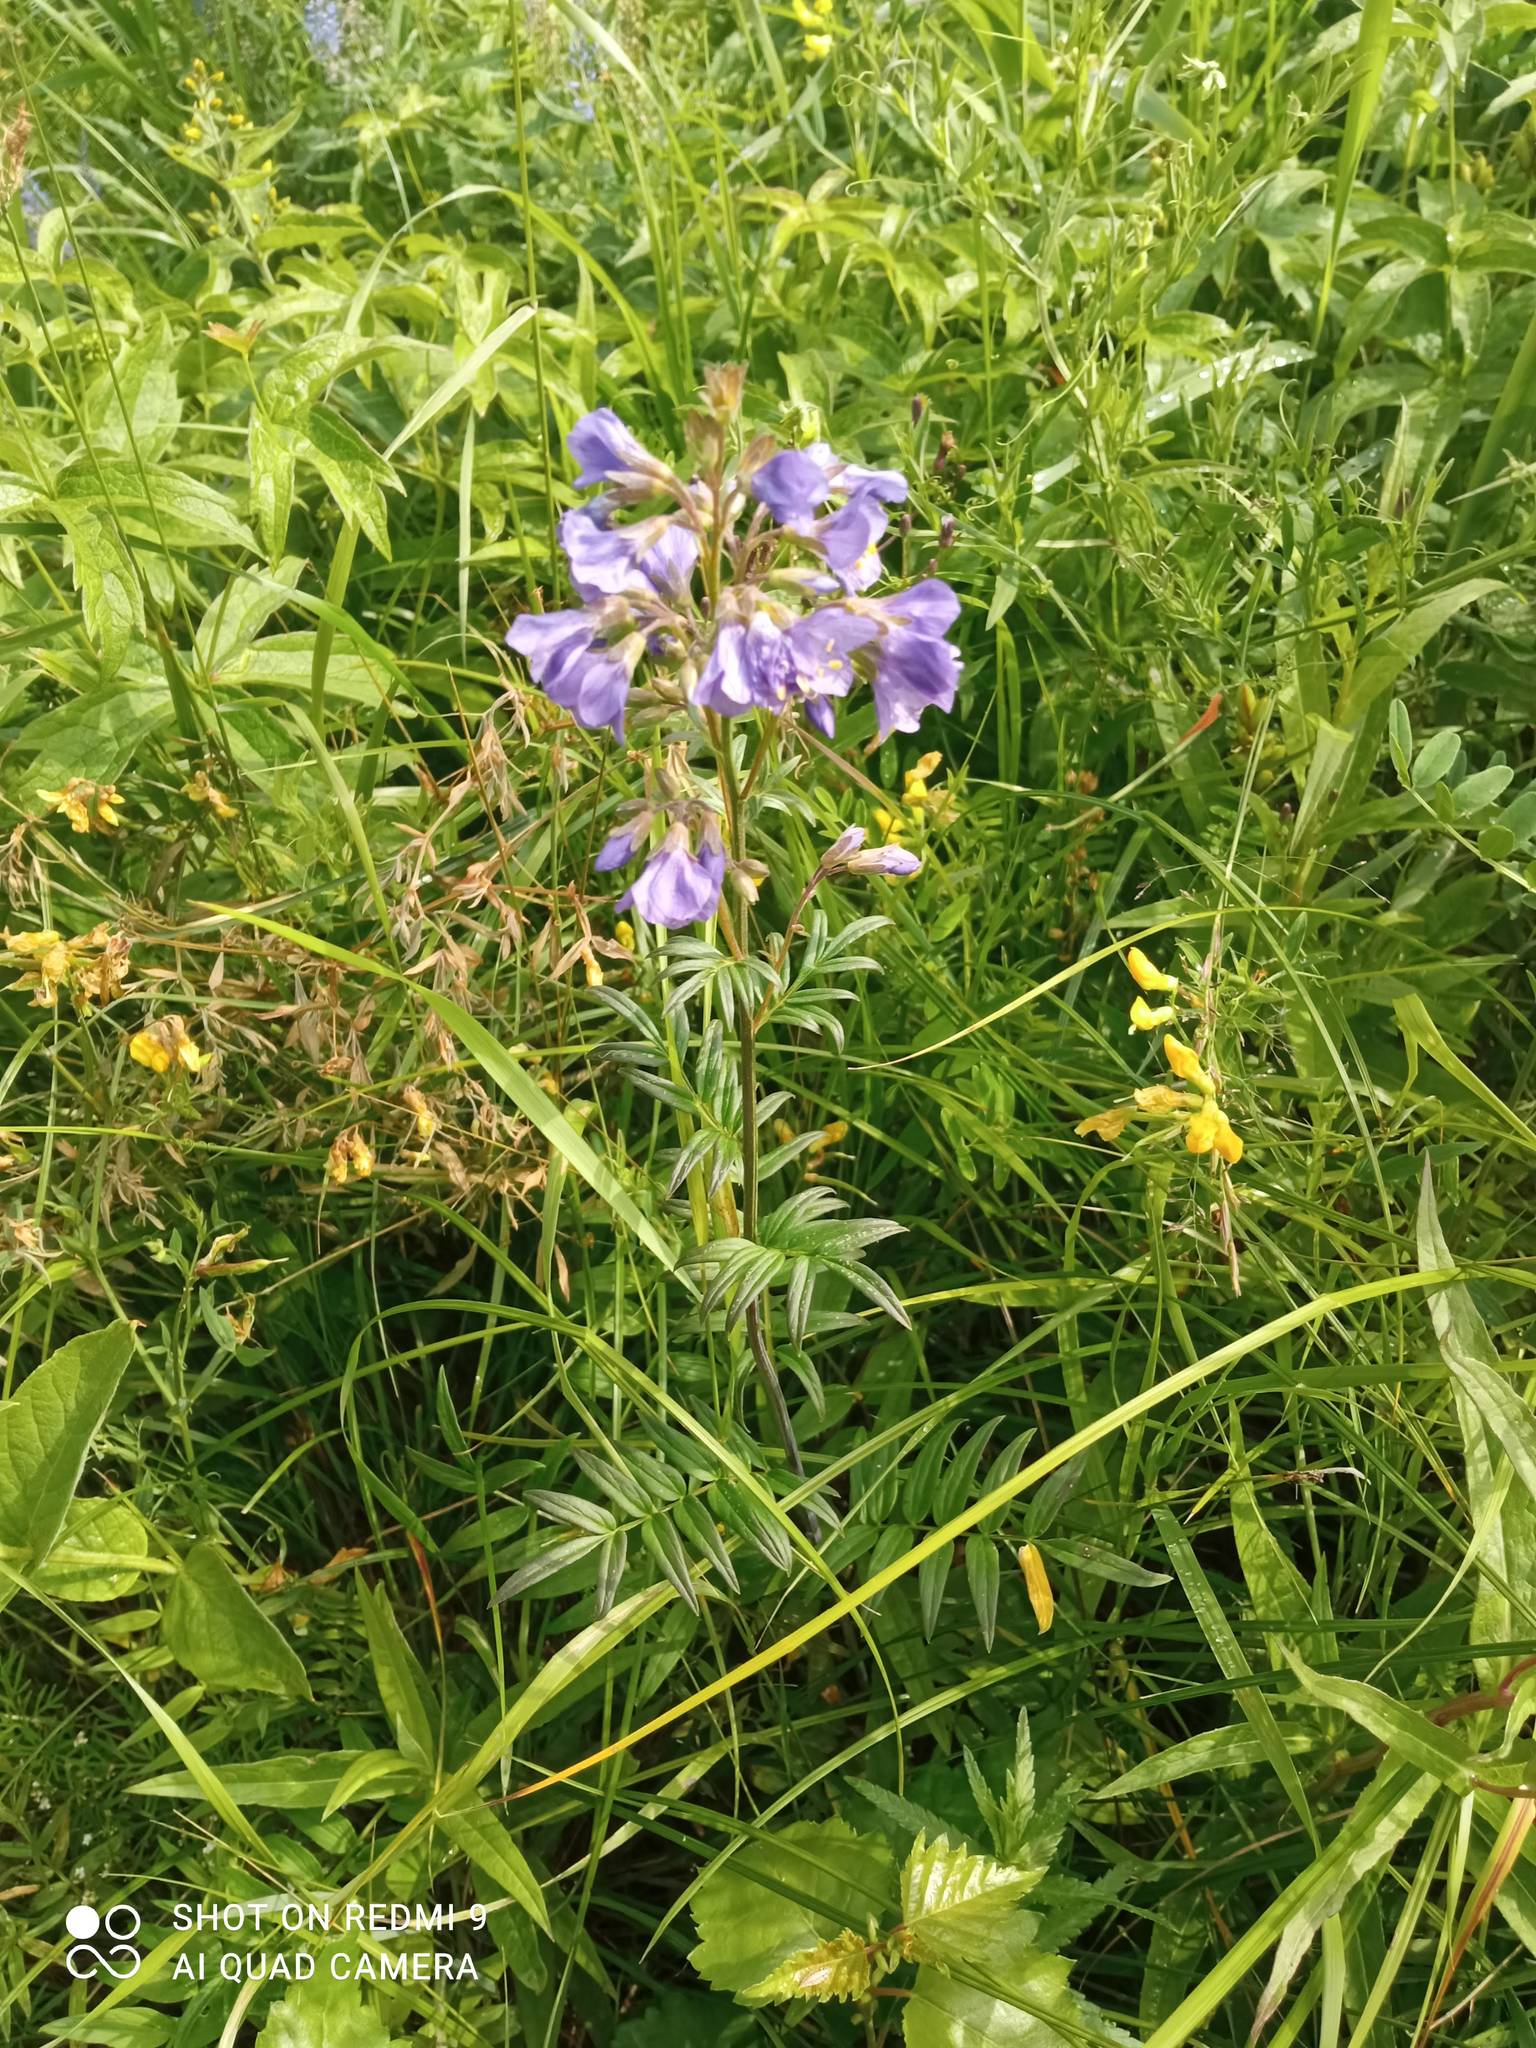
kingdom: Plantae
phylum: Tracheophyta
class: Magnoliopsida
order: Ericales
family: Polemoniaceae
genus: Polemonium
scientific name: Polemonium caeruleum
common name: Jacob's-ladder
